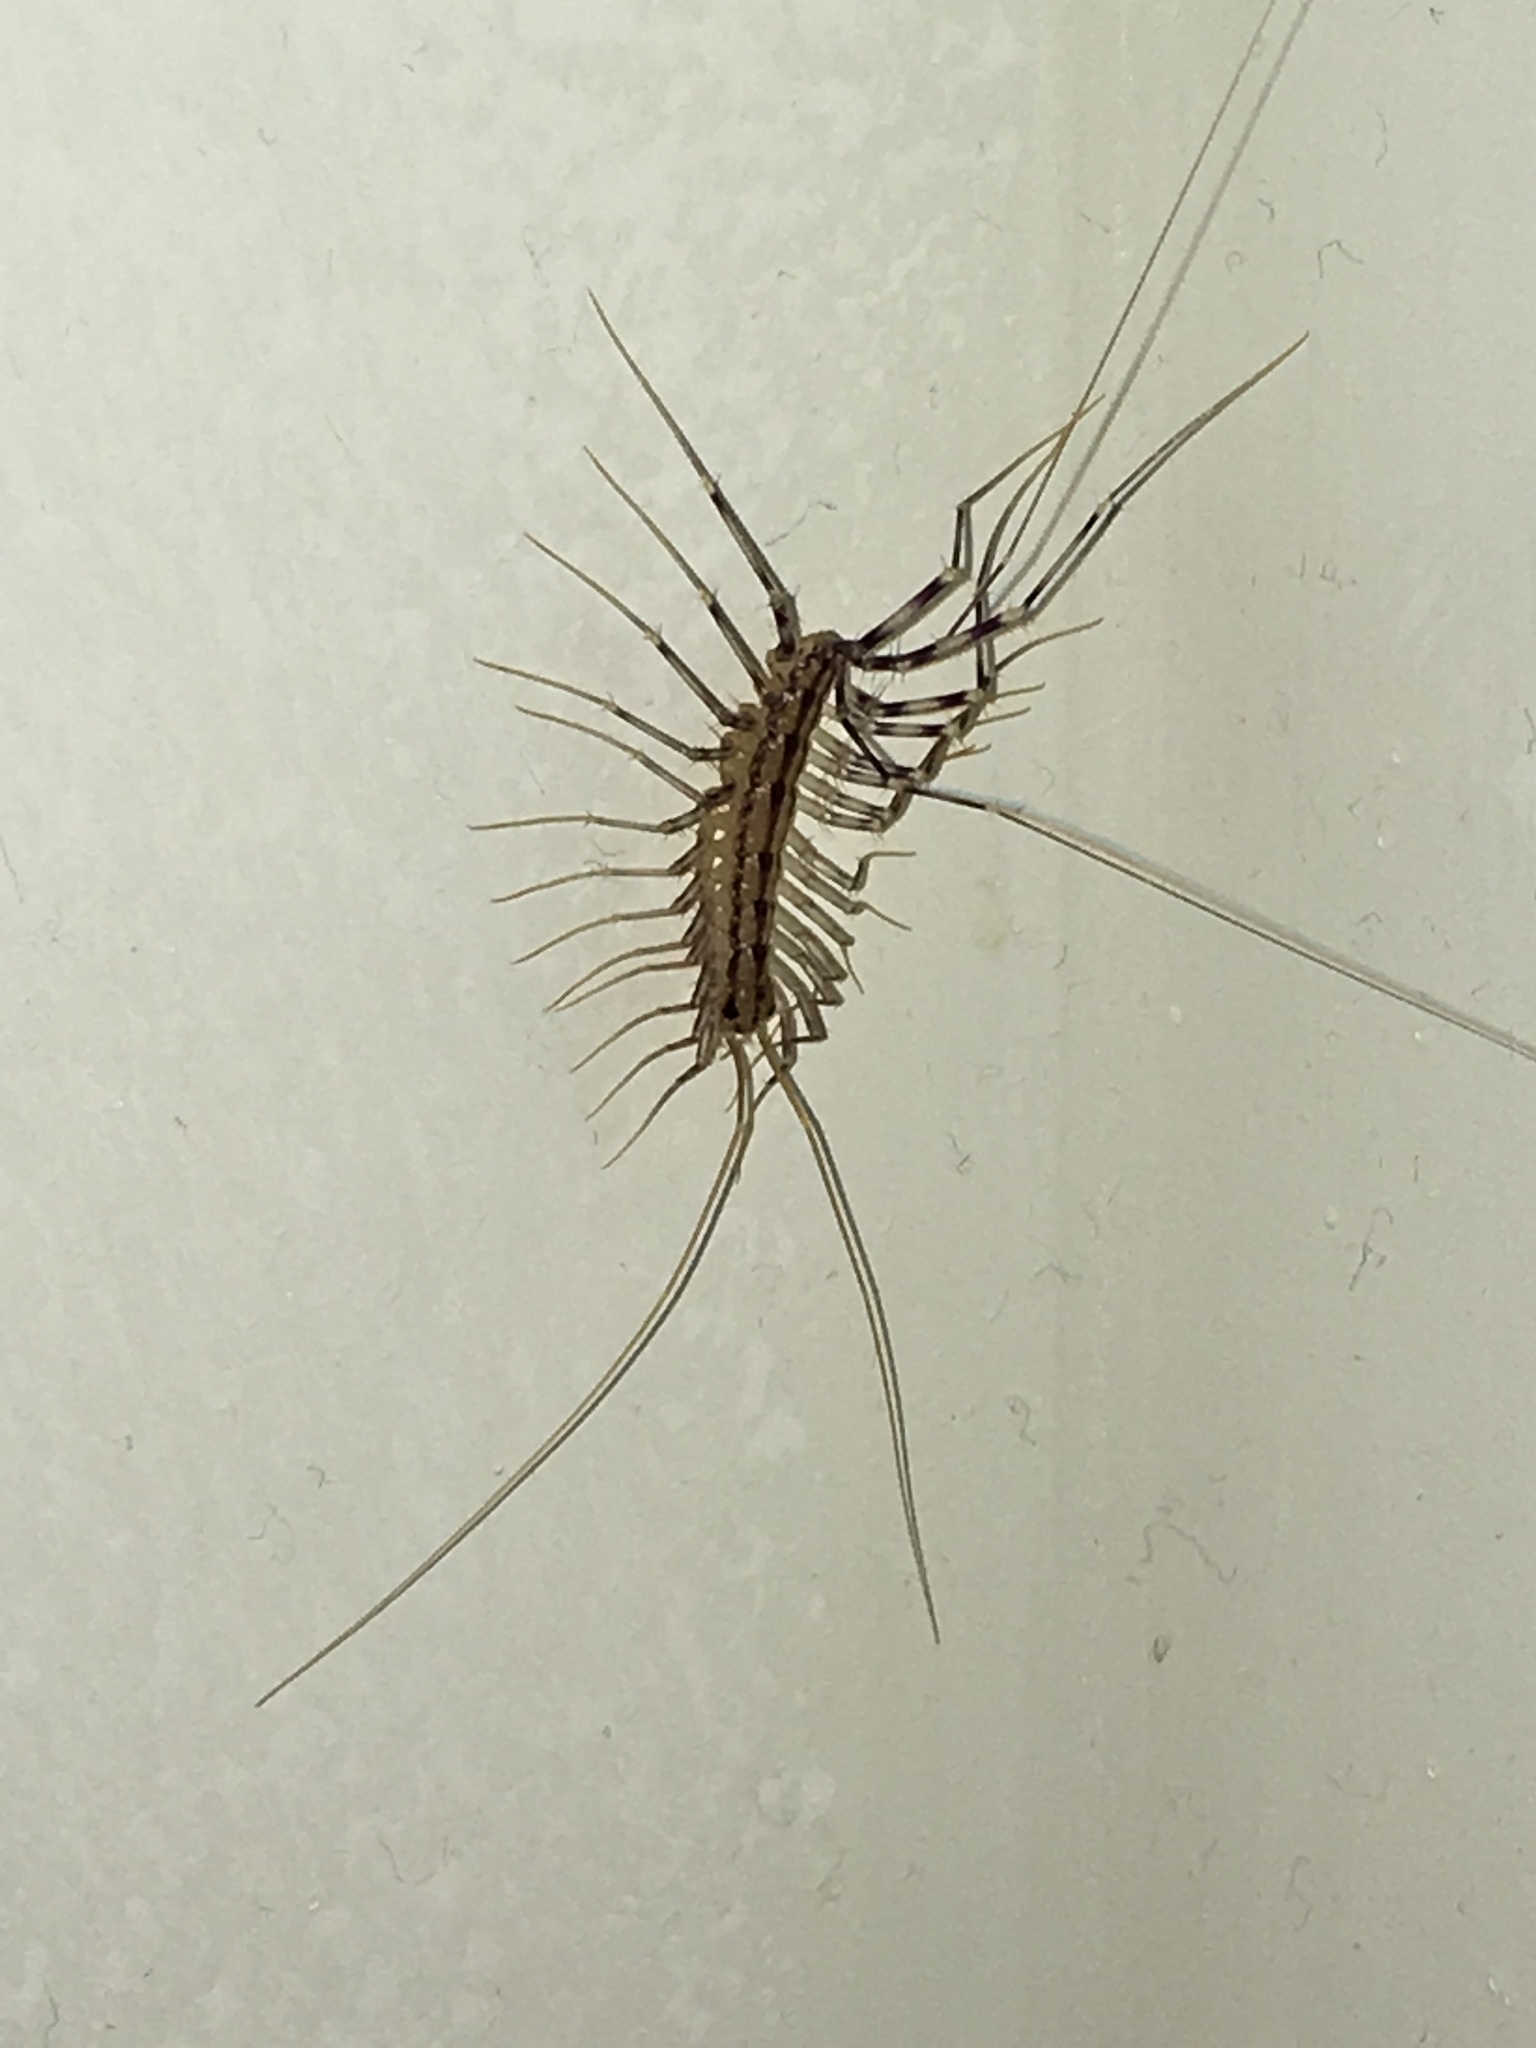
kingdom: Animalia
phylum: Arthropoda
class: Chilopoda
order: Scutigeromorpha
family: Scutigeridae
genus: Scutigera
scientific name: Scutigera coleoptrata
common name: House centipede
